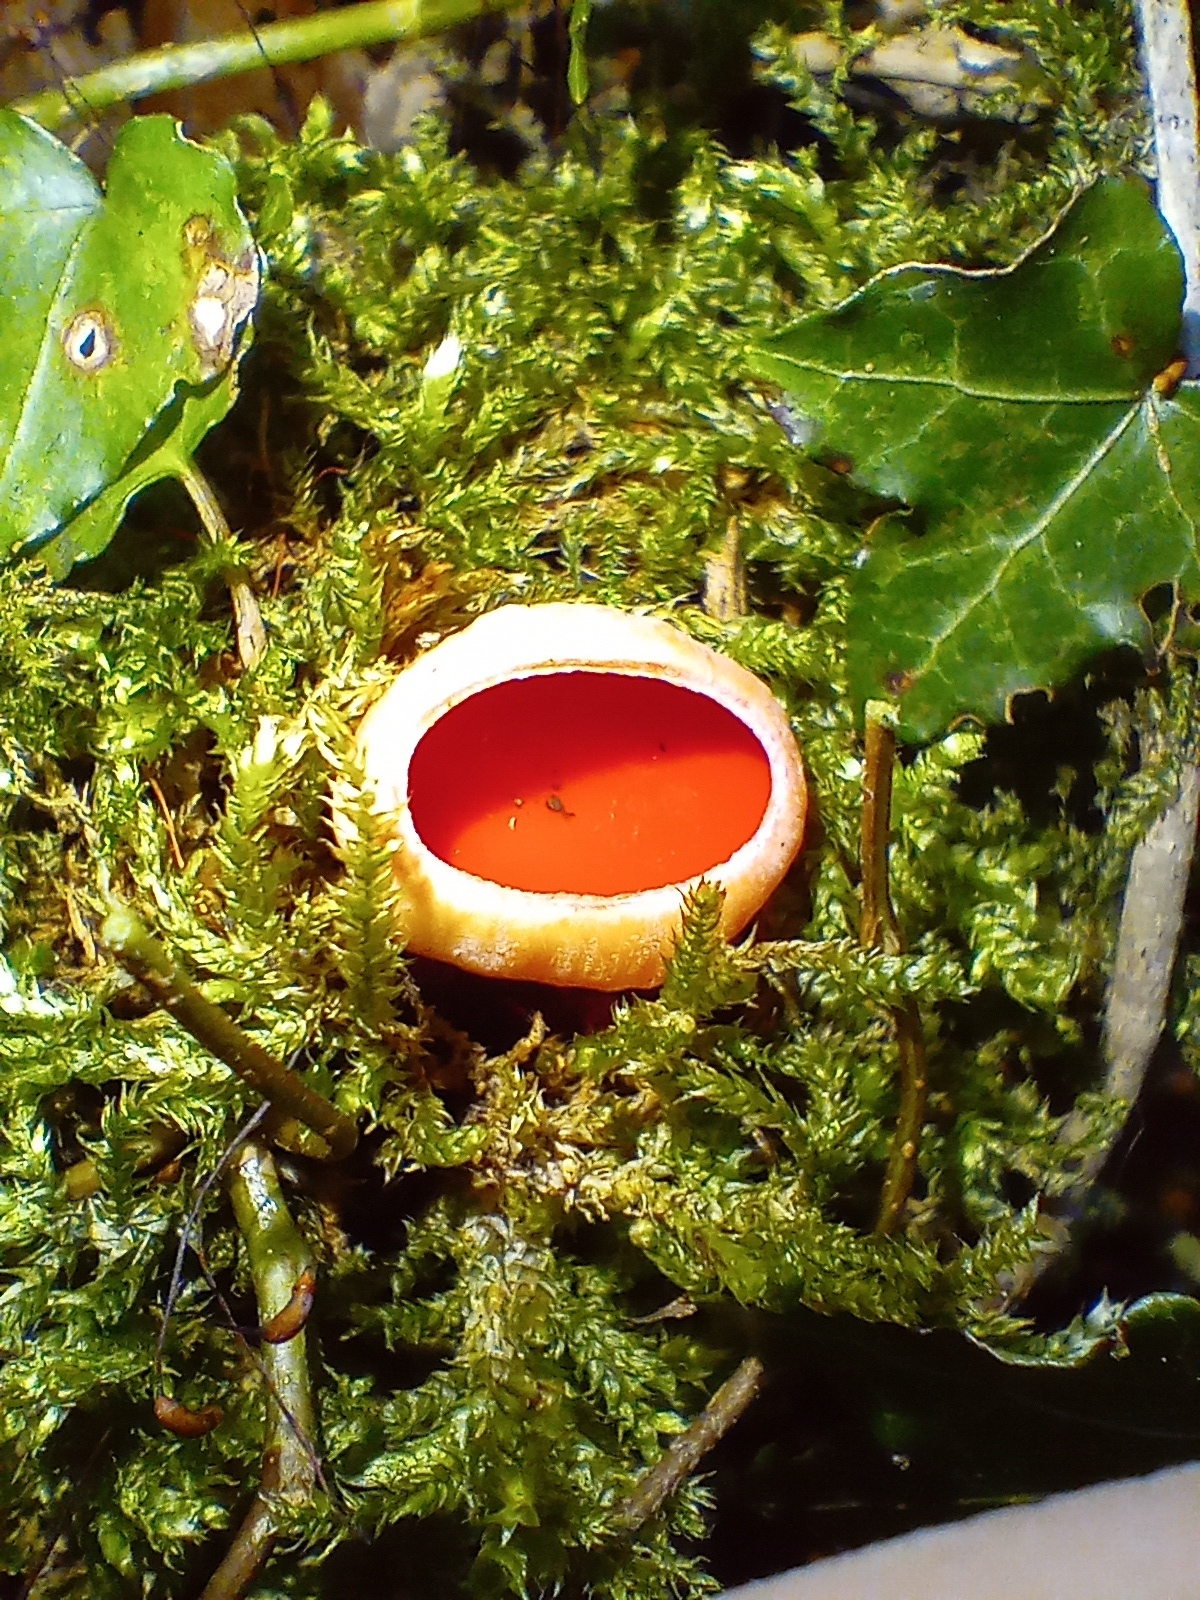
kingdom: Fungi
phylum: Ascomycota
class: Pezizomycetes
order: Pezizales
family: Sarcoscyphaceae
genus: Sarcoscypha
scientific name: Sarcoscypha
